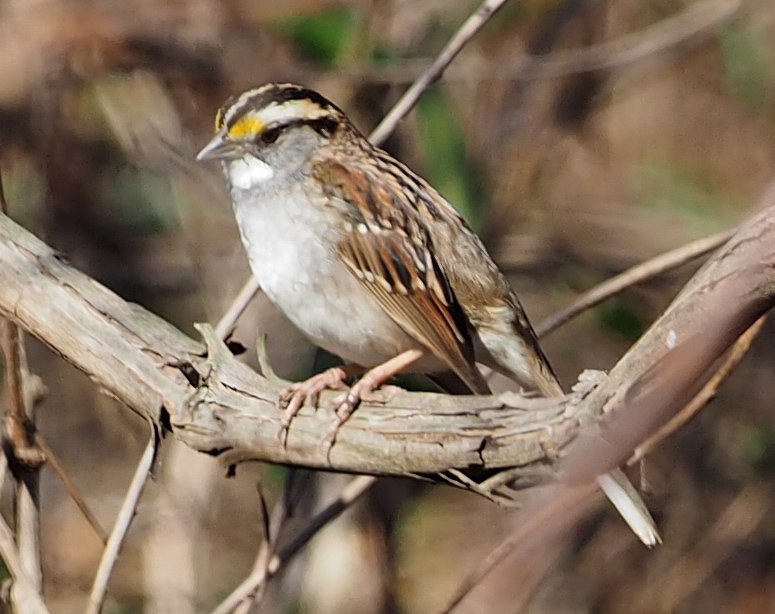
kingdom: Animalia
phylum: Chordata
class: Aves
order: Passeriformes
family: Passerellidae
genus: Zonotrichia
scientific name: Zonotrichia albicollis
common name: White-throated sparrow
